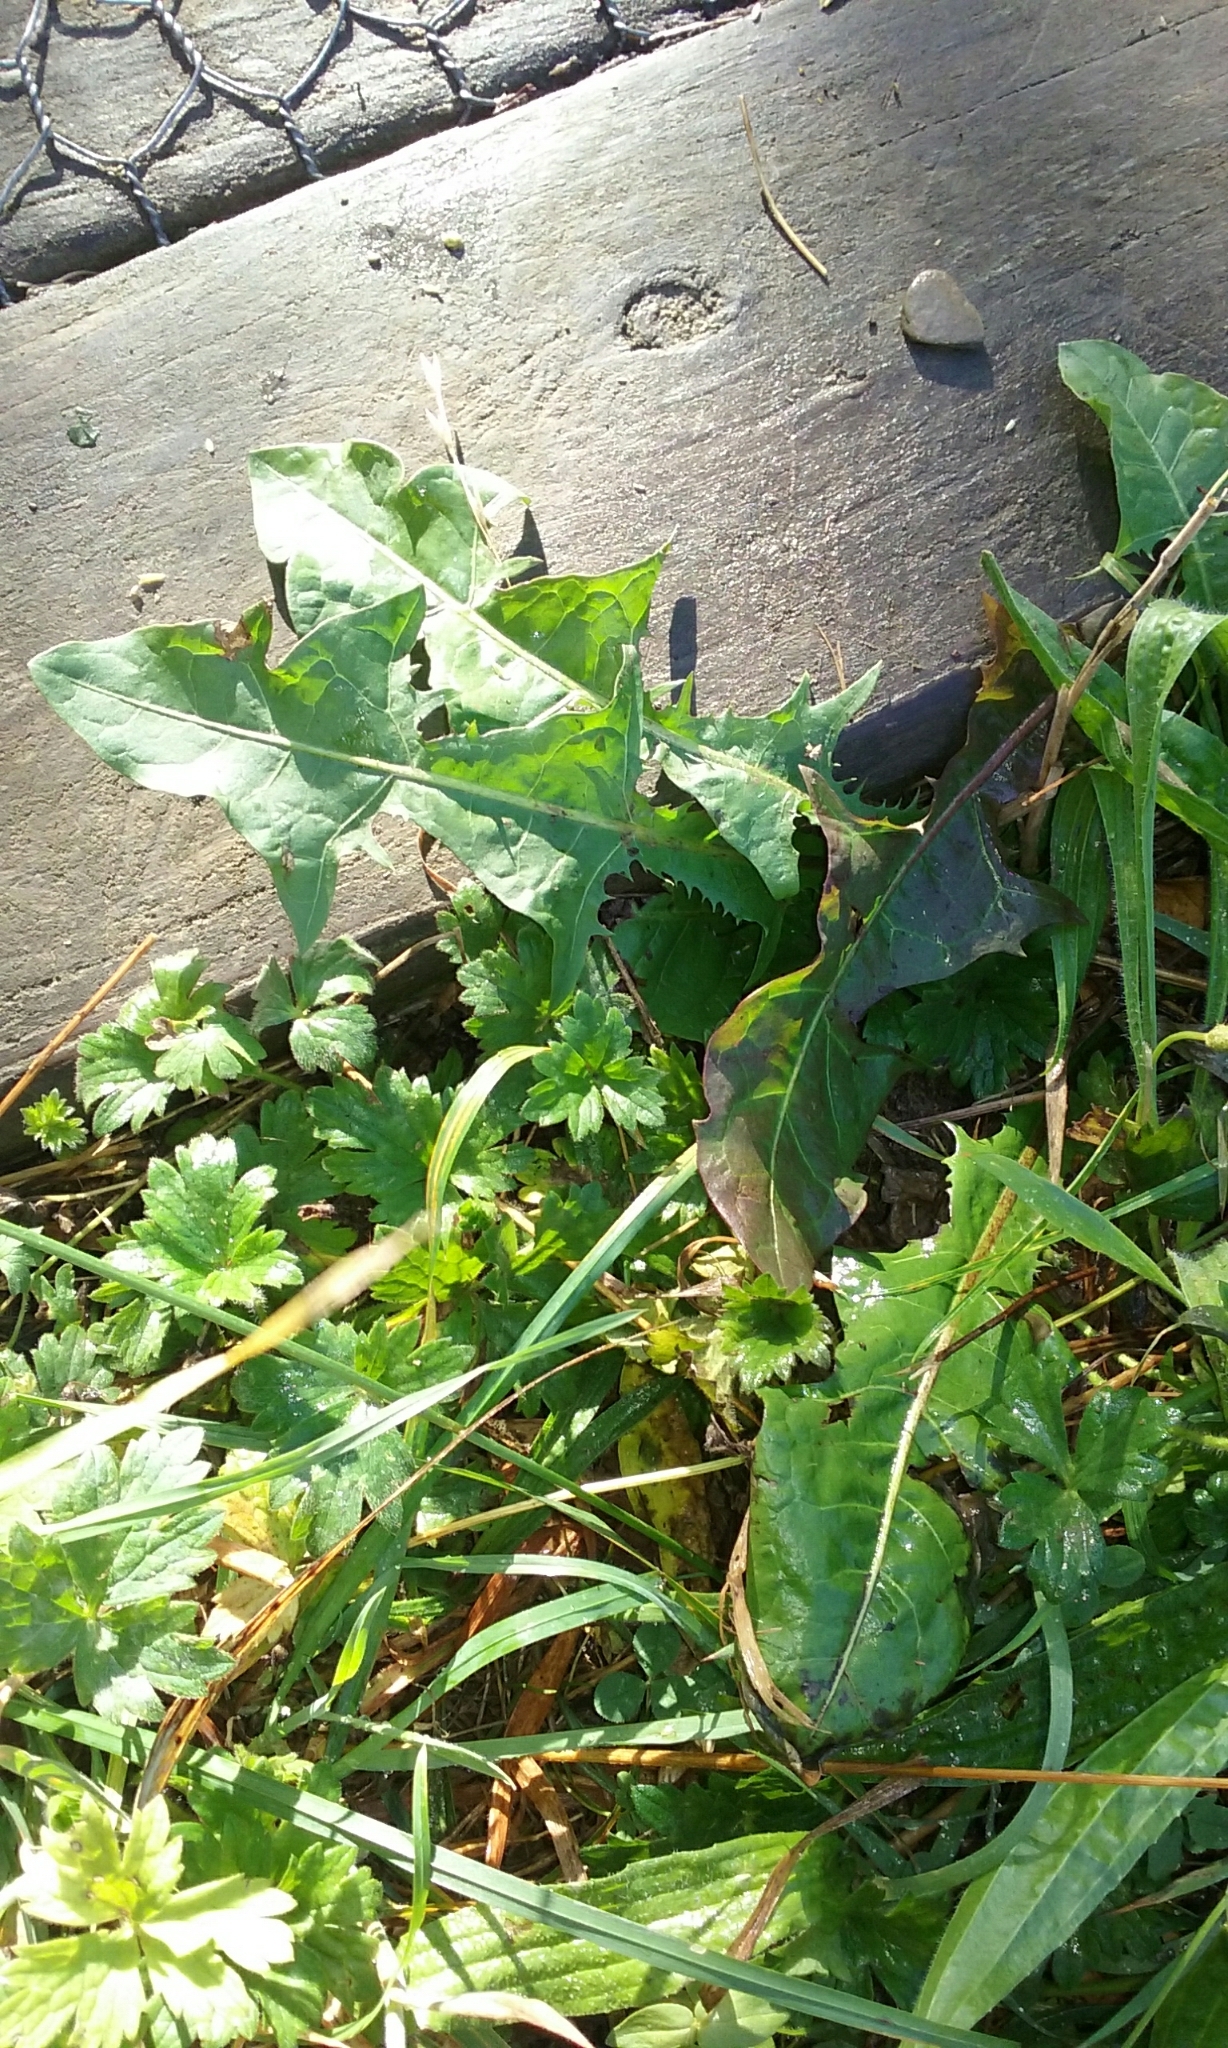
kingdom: Plantae
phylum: Tracheophyta
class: Magnoliopsida
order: Asterales
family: Asteraceae
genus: Taraxacum
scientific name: Taraxacum officinale
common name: Common dandelion
